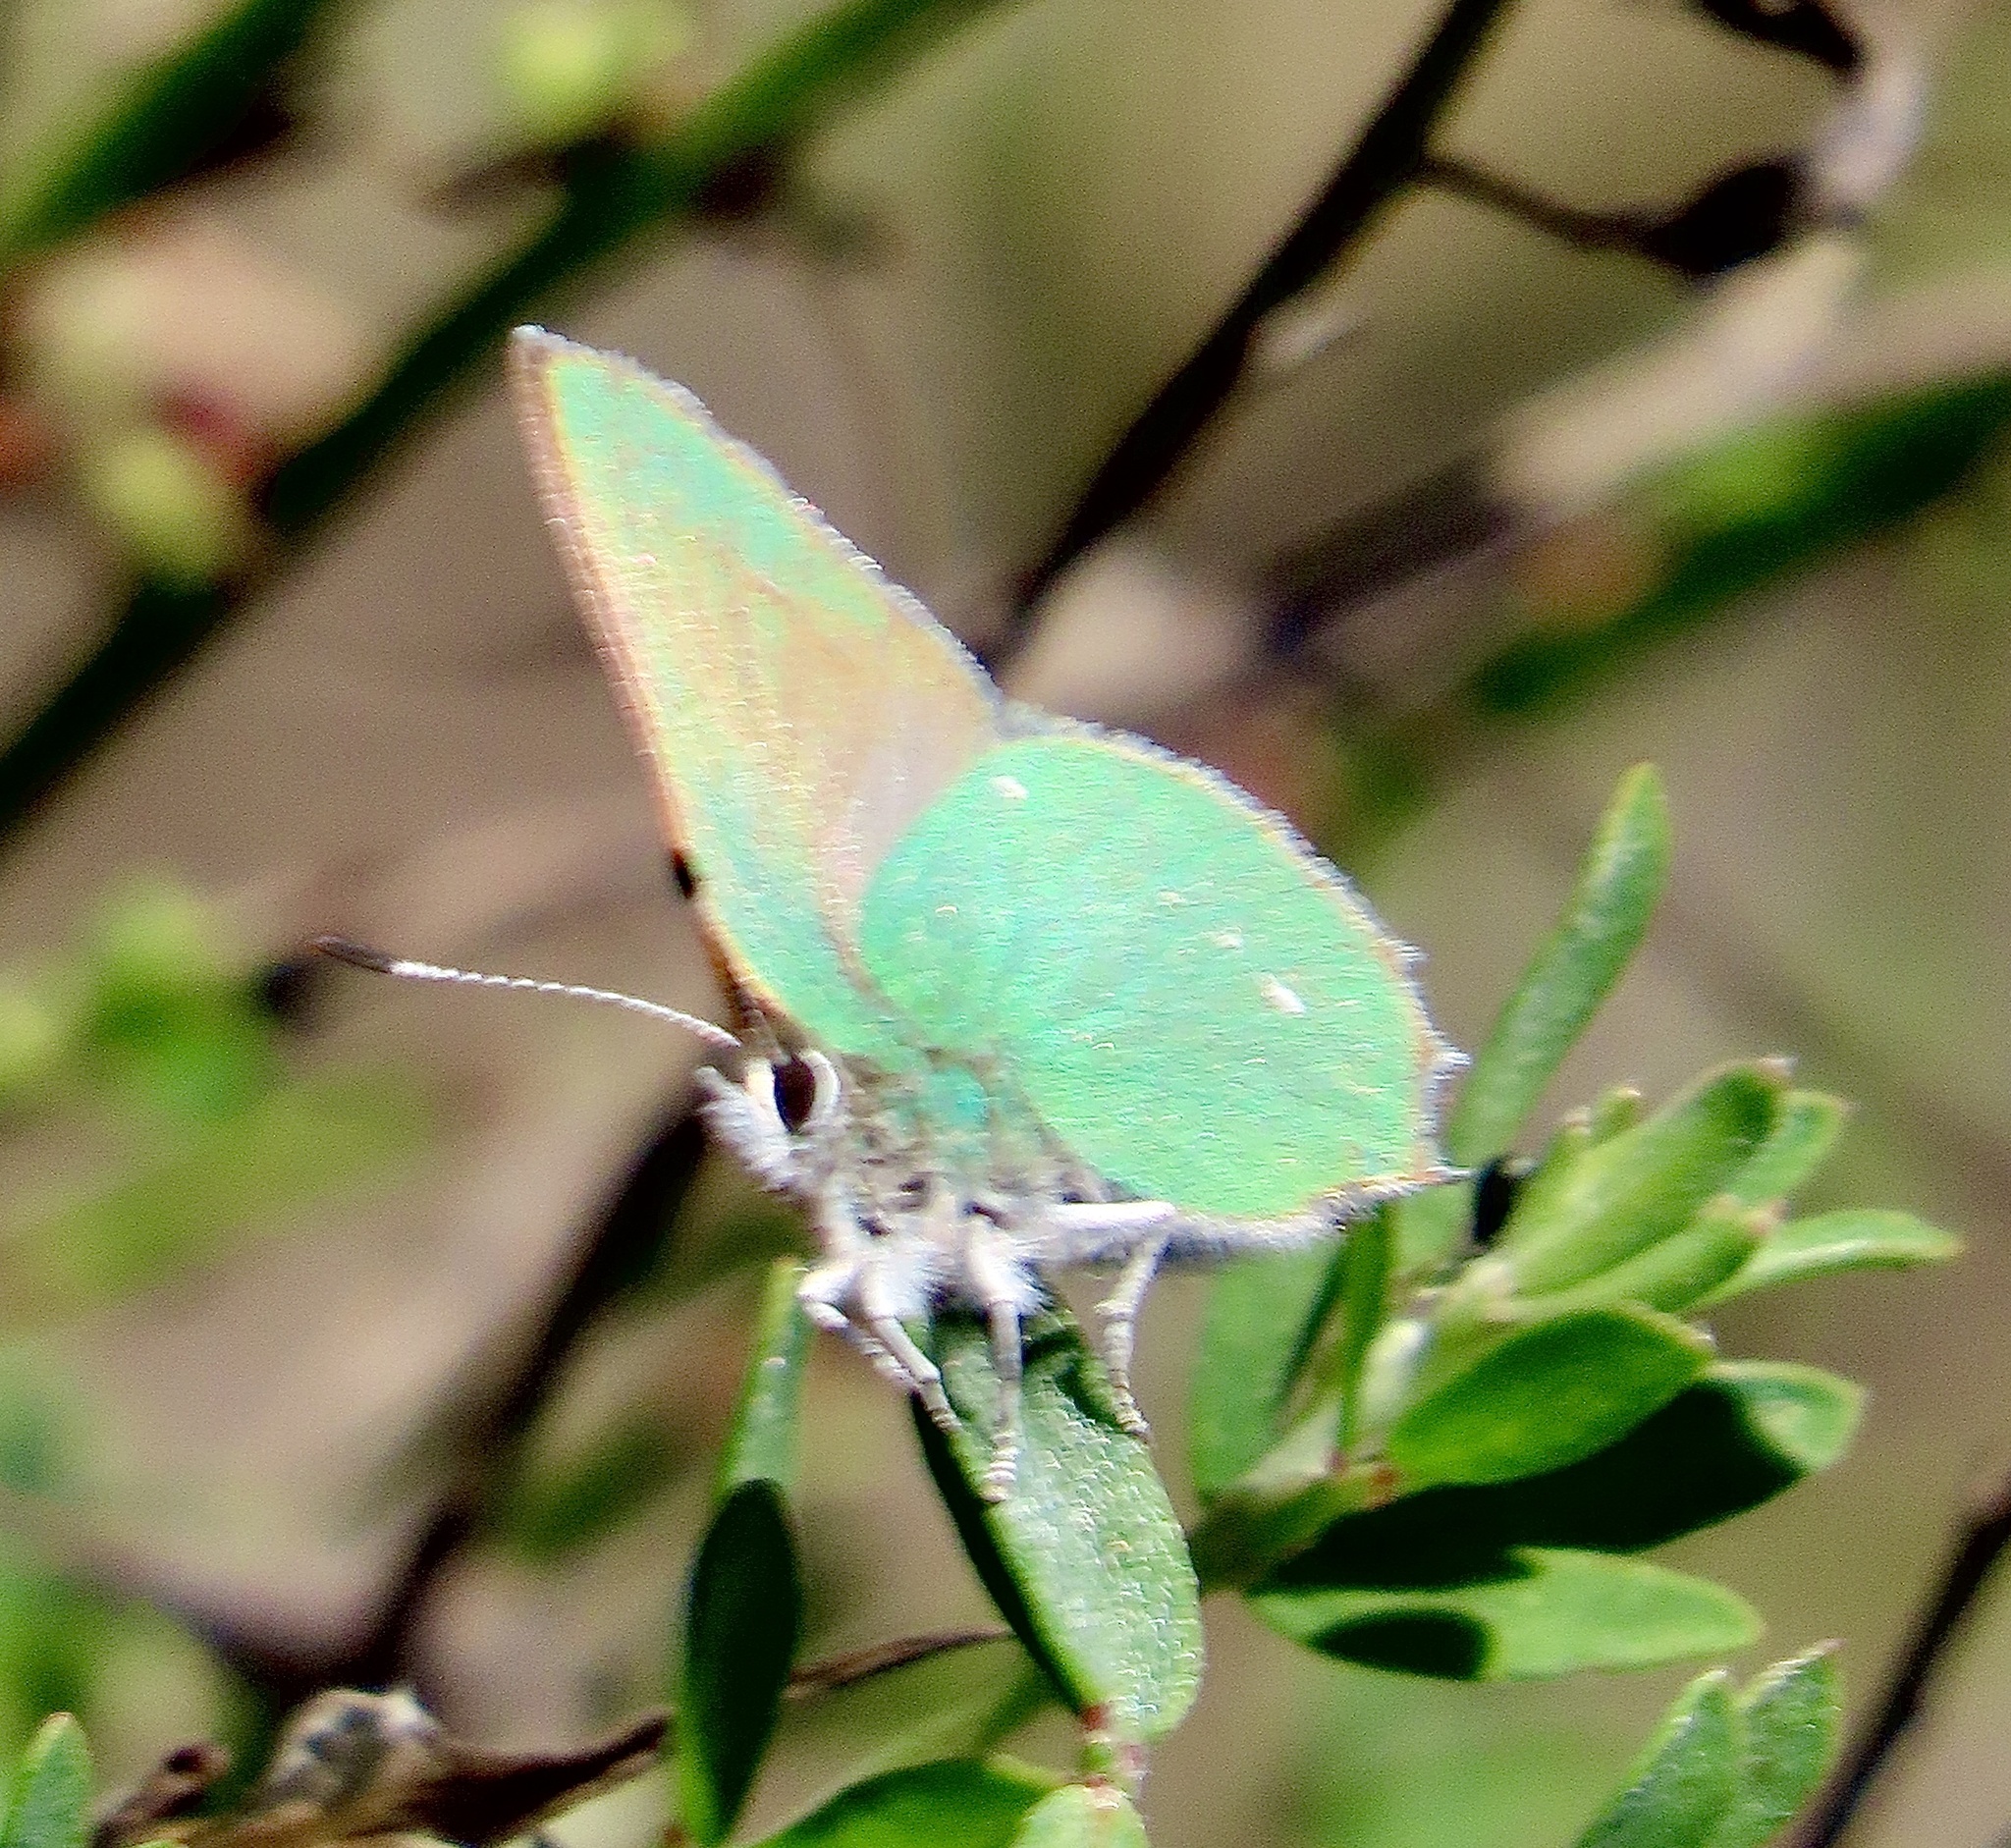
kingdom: Animalia
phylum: Arthropoda
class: Insecta
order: Lepidoptera
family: Lycaenidae
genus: Callophrys
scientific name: Callophrys dumetorum
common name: Bramble hairstreak
